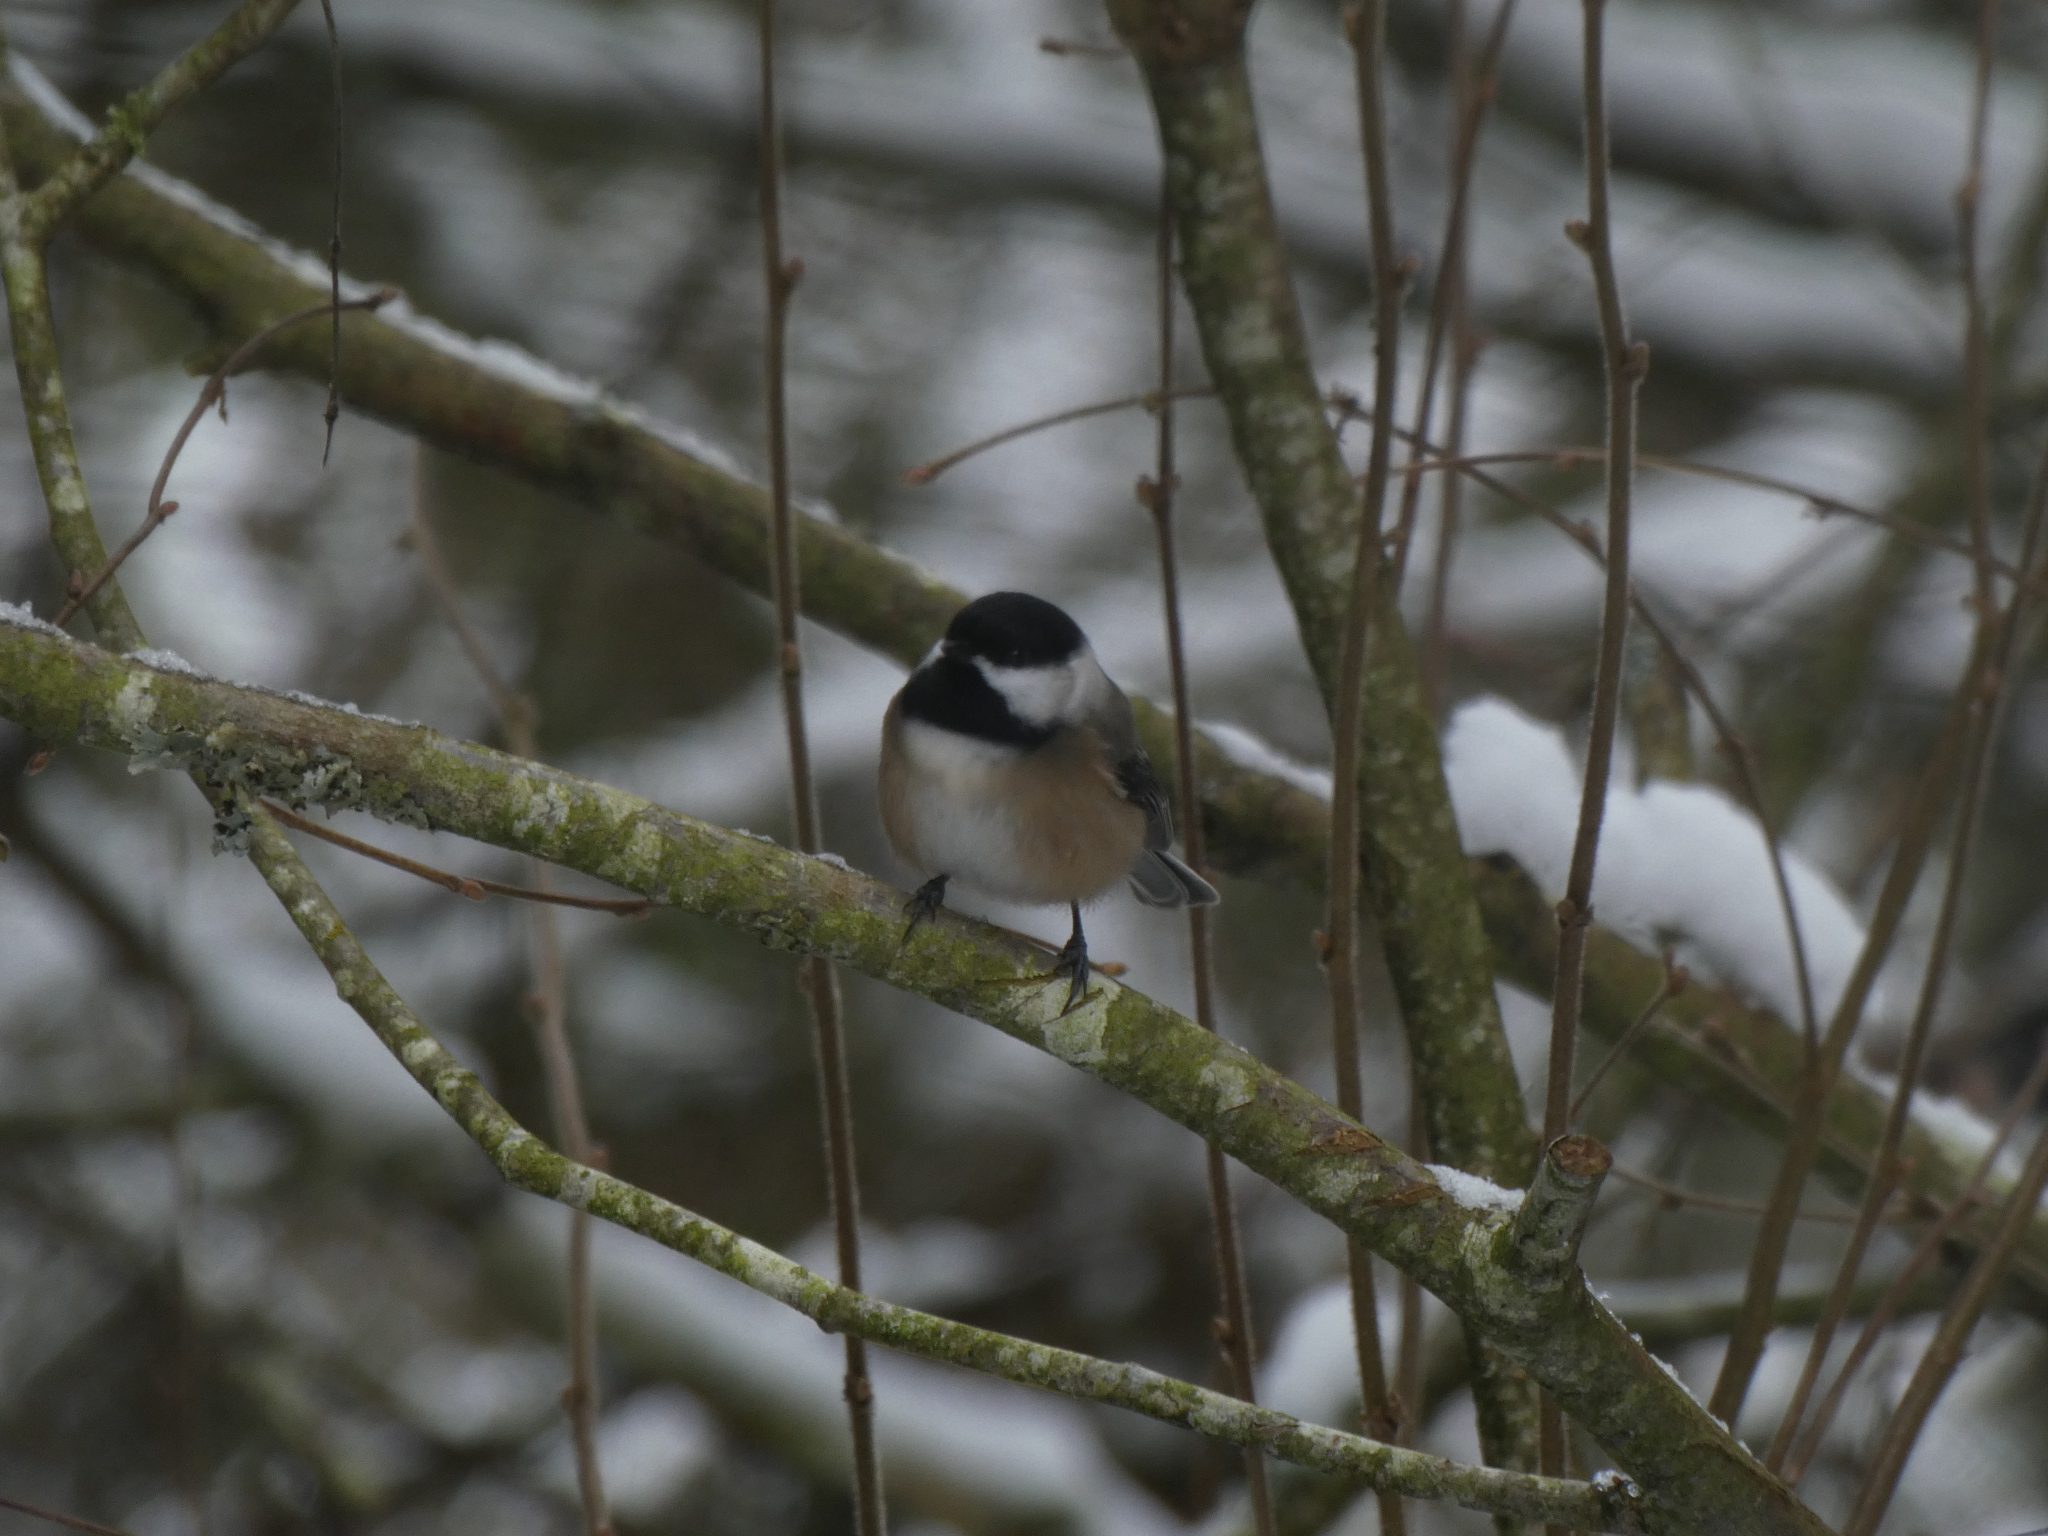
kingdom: Animalia
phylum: Chordata
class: Aves
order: Passeriformes
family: Paridae
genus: Poecile
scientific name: Poecile atricapillus
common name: Black-capped chickadee
